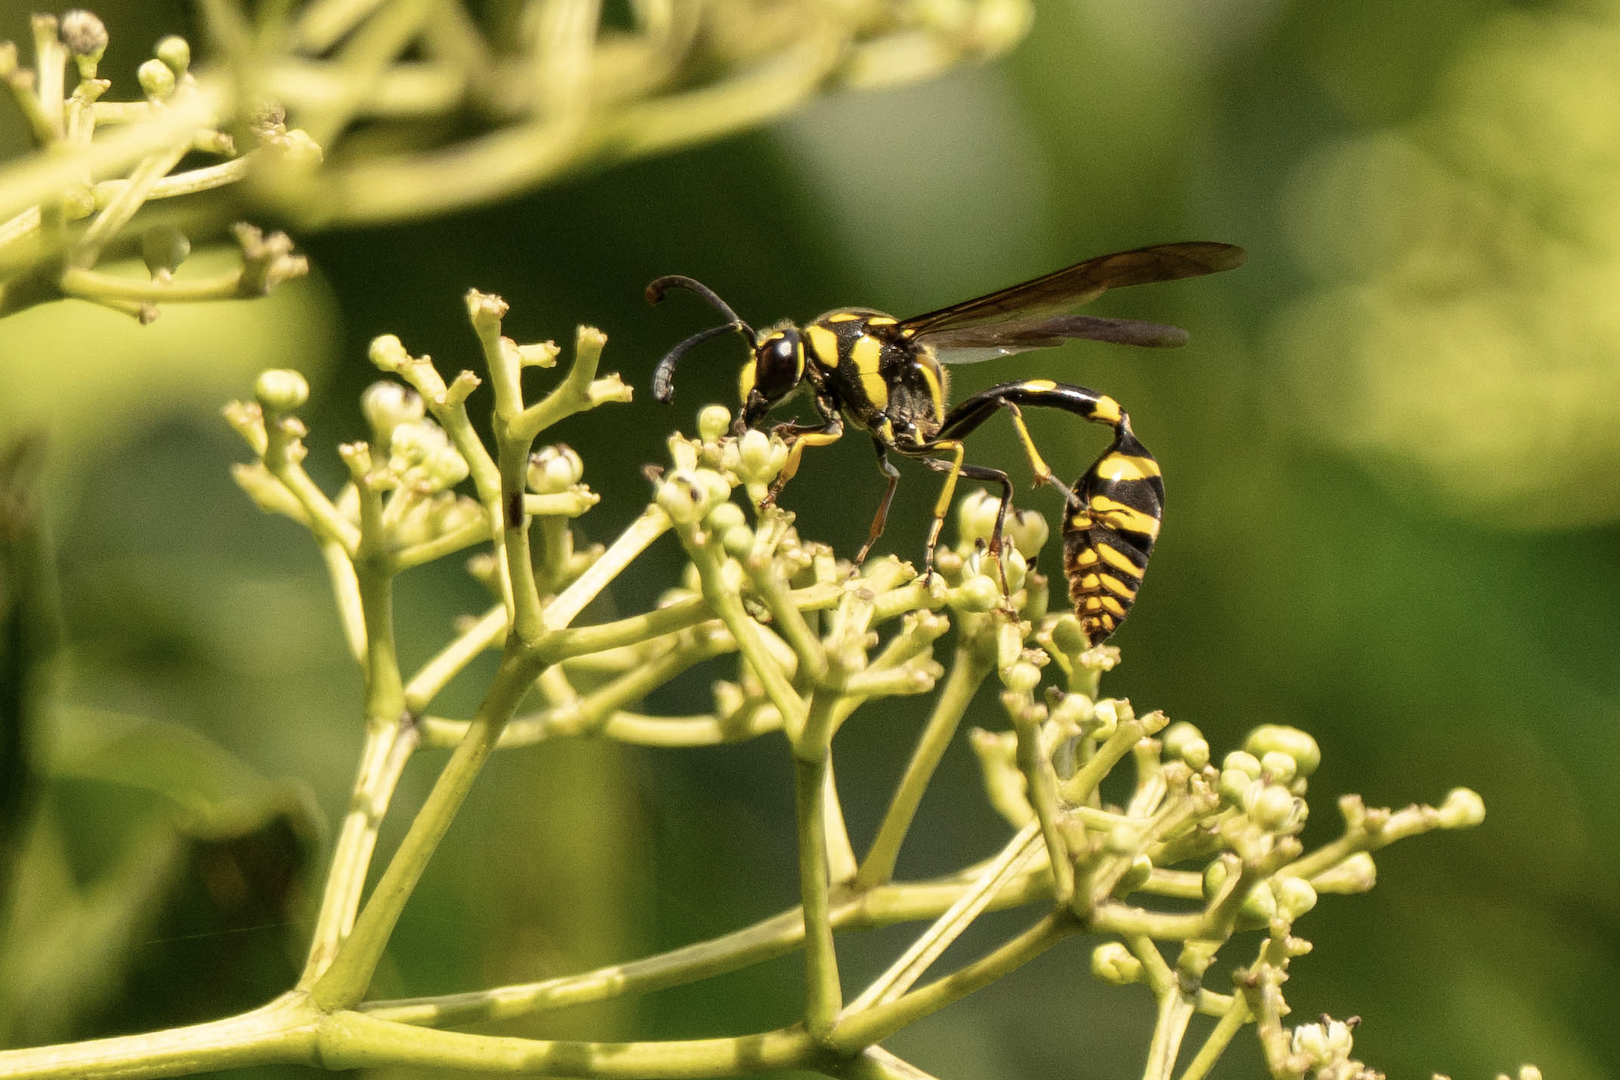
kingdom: Animalia
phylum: Arthropoda
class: Insecta
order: Hymenoptera
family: Eumenidae
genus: Phimenes
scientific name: Phimenes flavopictus
